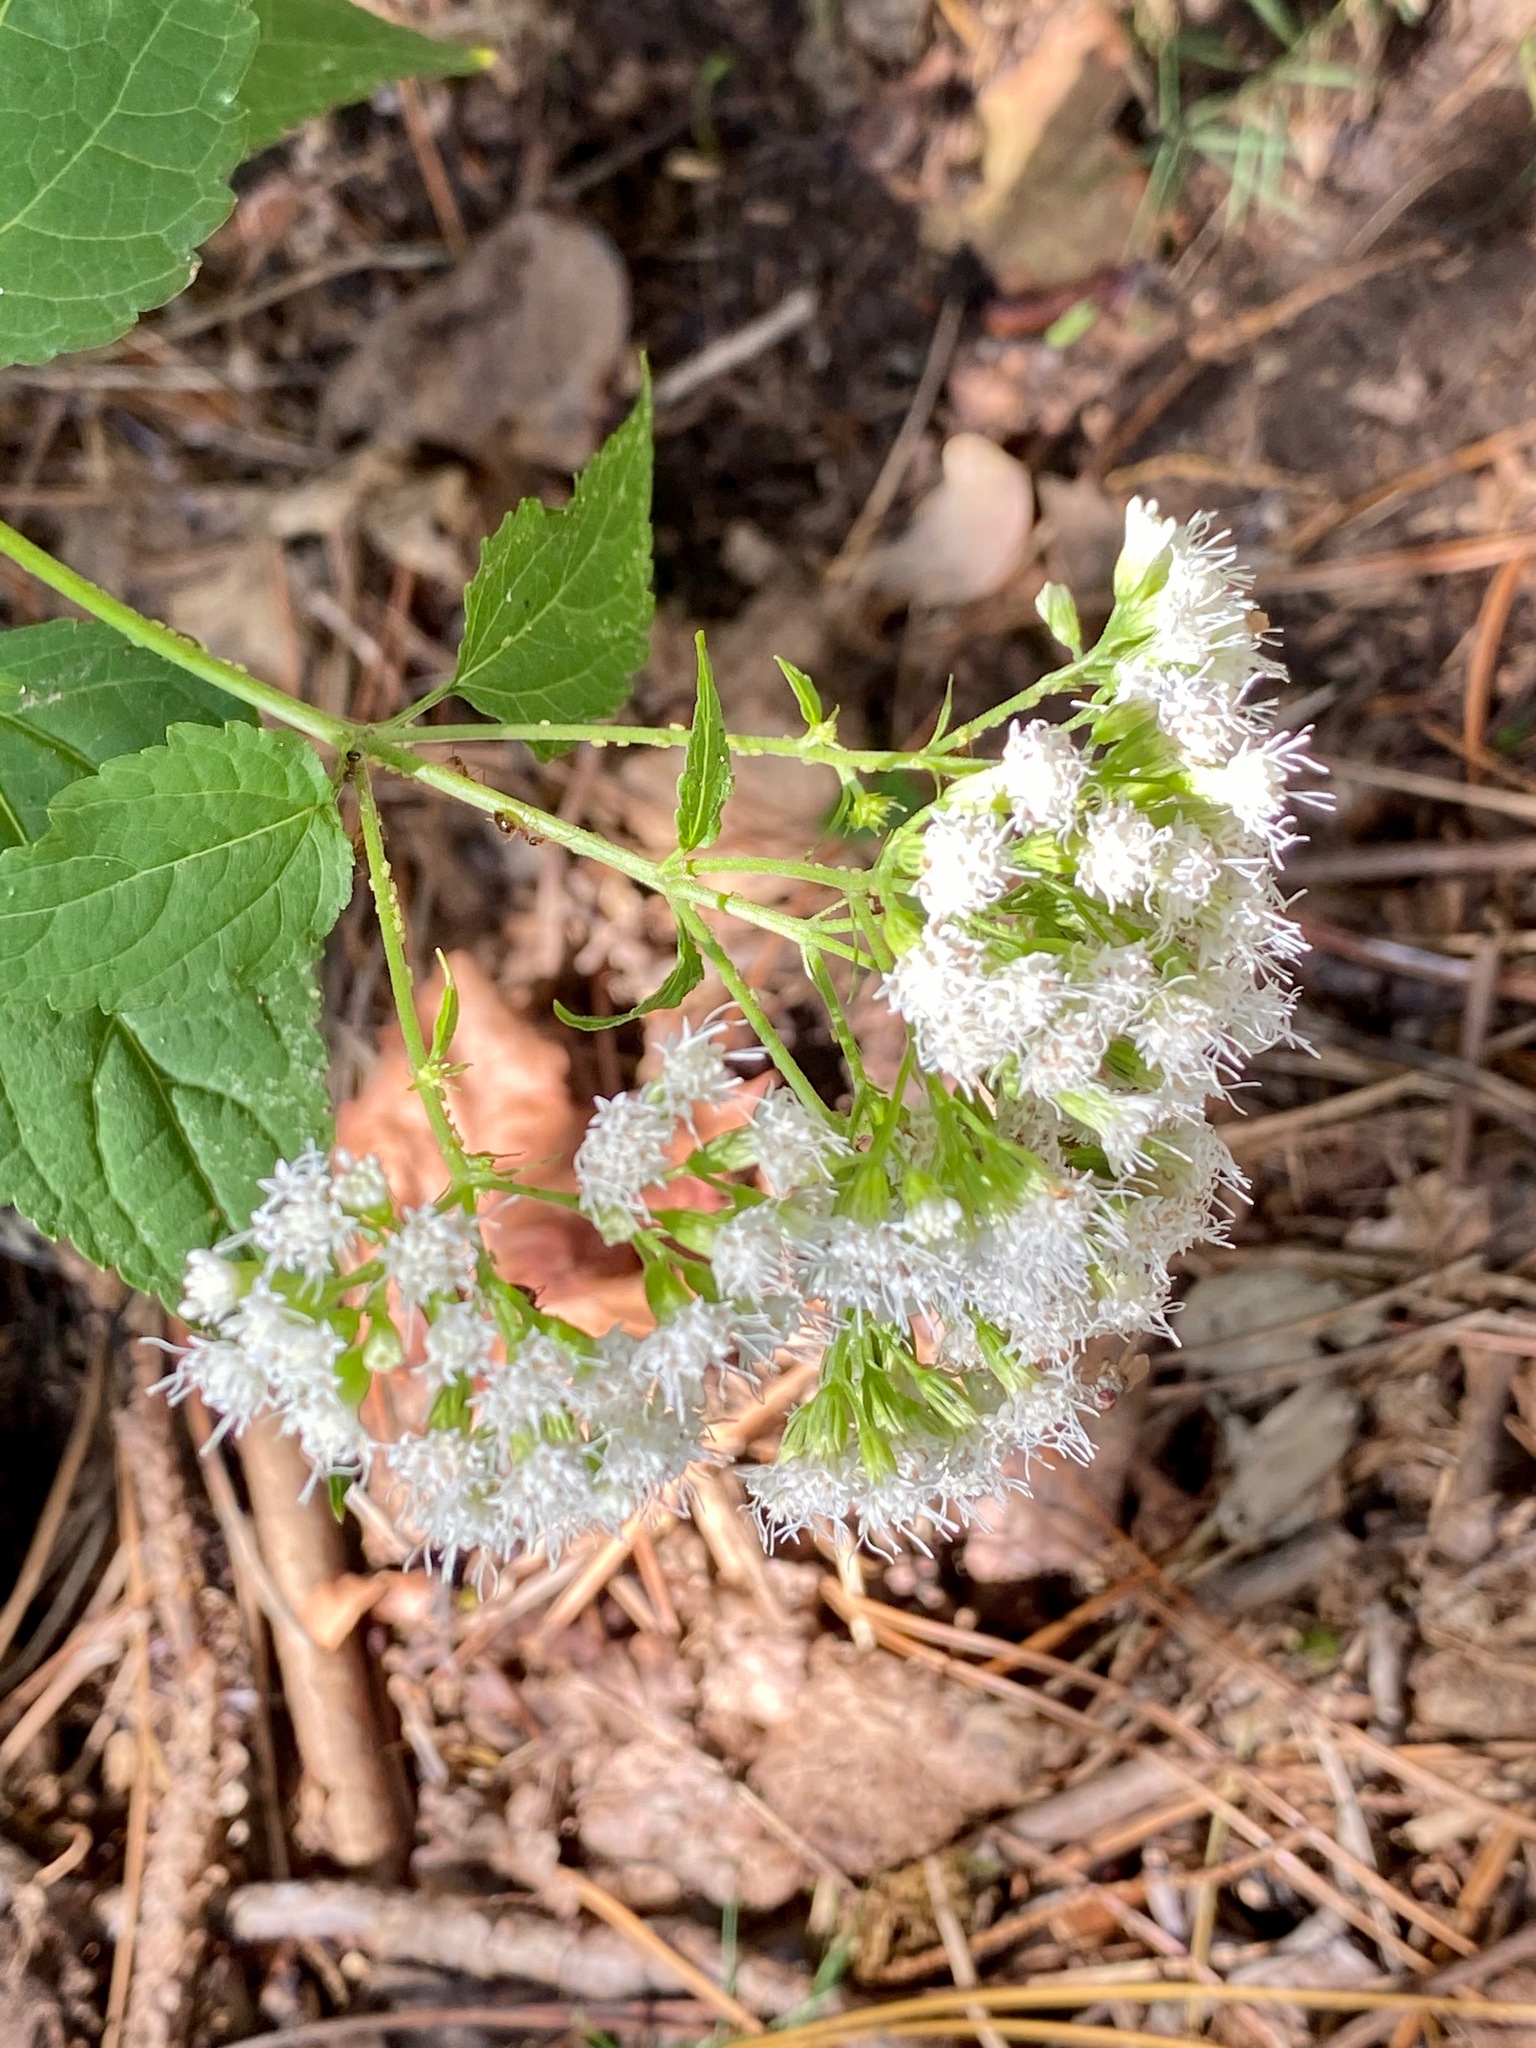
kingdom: Plantae
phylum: Tracheophyta
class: Magnoliopsida
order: Asterales
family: Asteraceae
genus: Ageratina
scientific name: Ageratina altissima
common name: White snakeroot
